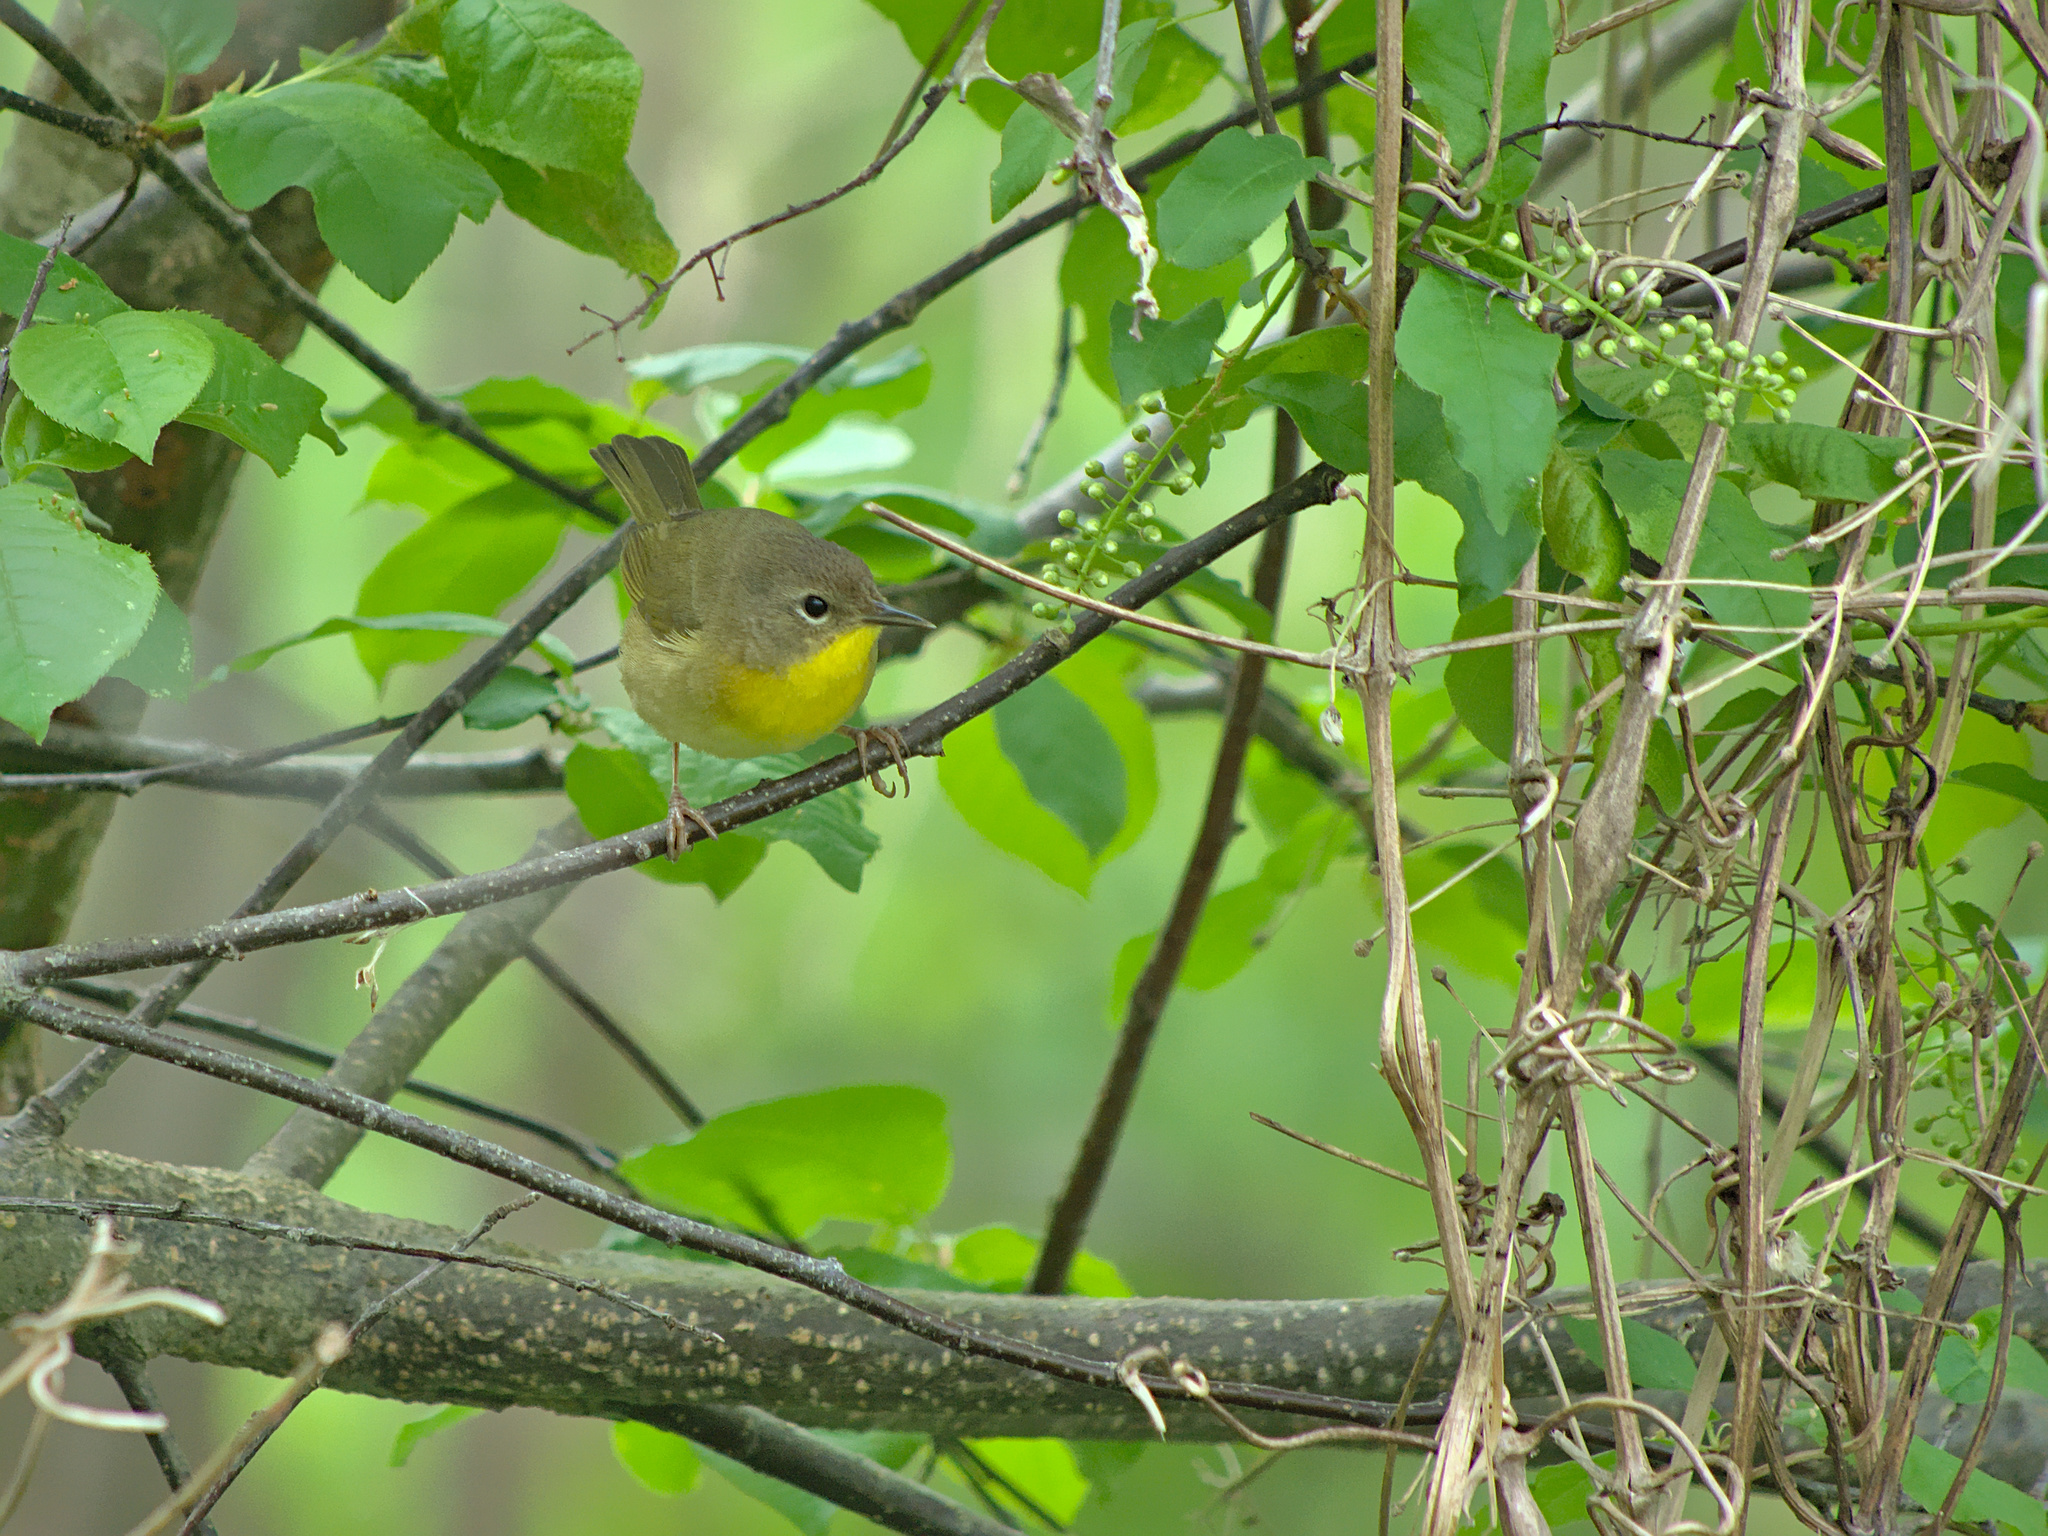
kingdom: Animalia
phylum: Chordata
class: Aves
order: Passeriformes
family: Parulidae
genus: Geothlypis
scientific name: Geothlypis trichas
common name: Common yellowthroat
